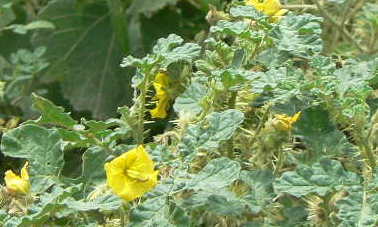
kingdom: Plantae
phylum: Tracheophyta
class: Magnoliopsida
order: Solanales
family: Solanaceae
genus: Solanum
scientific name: Solanum angustifolium
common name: Buffalobur nightshade
